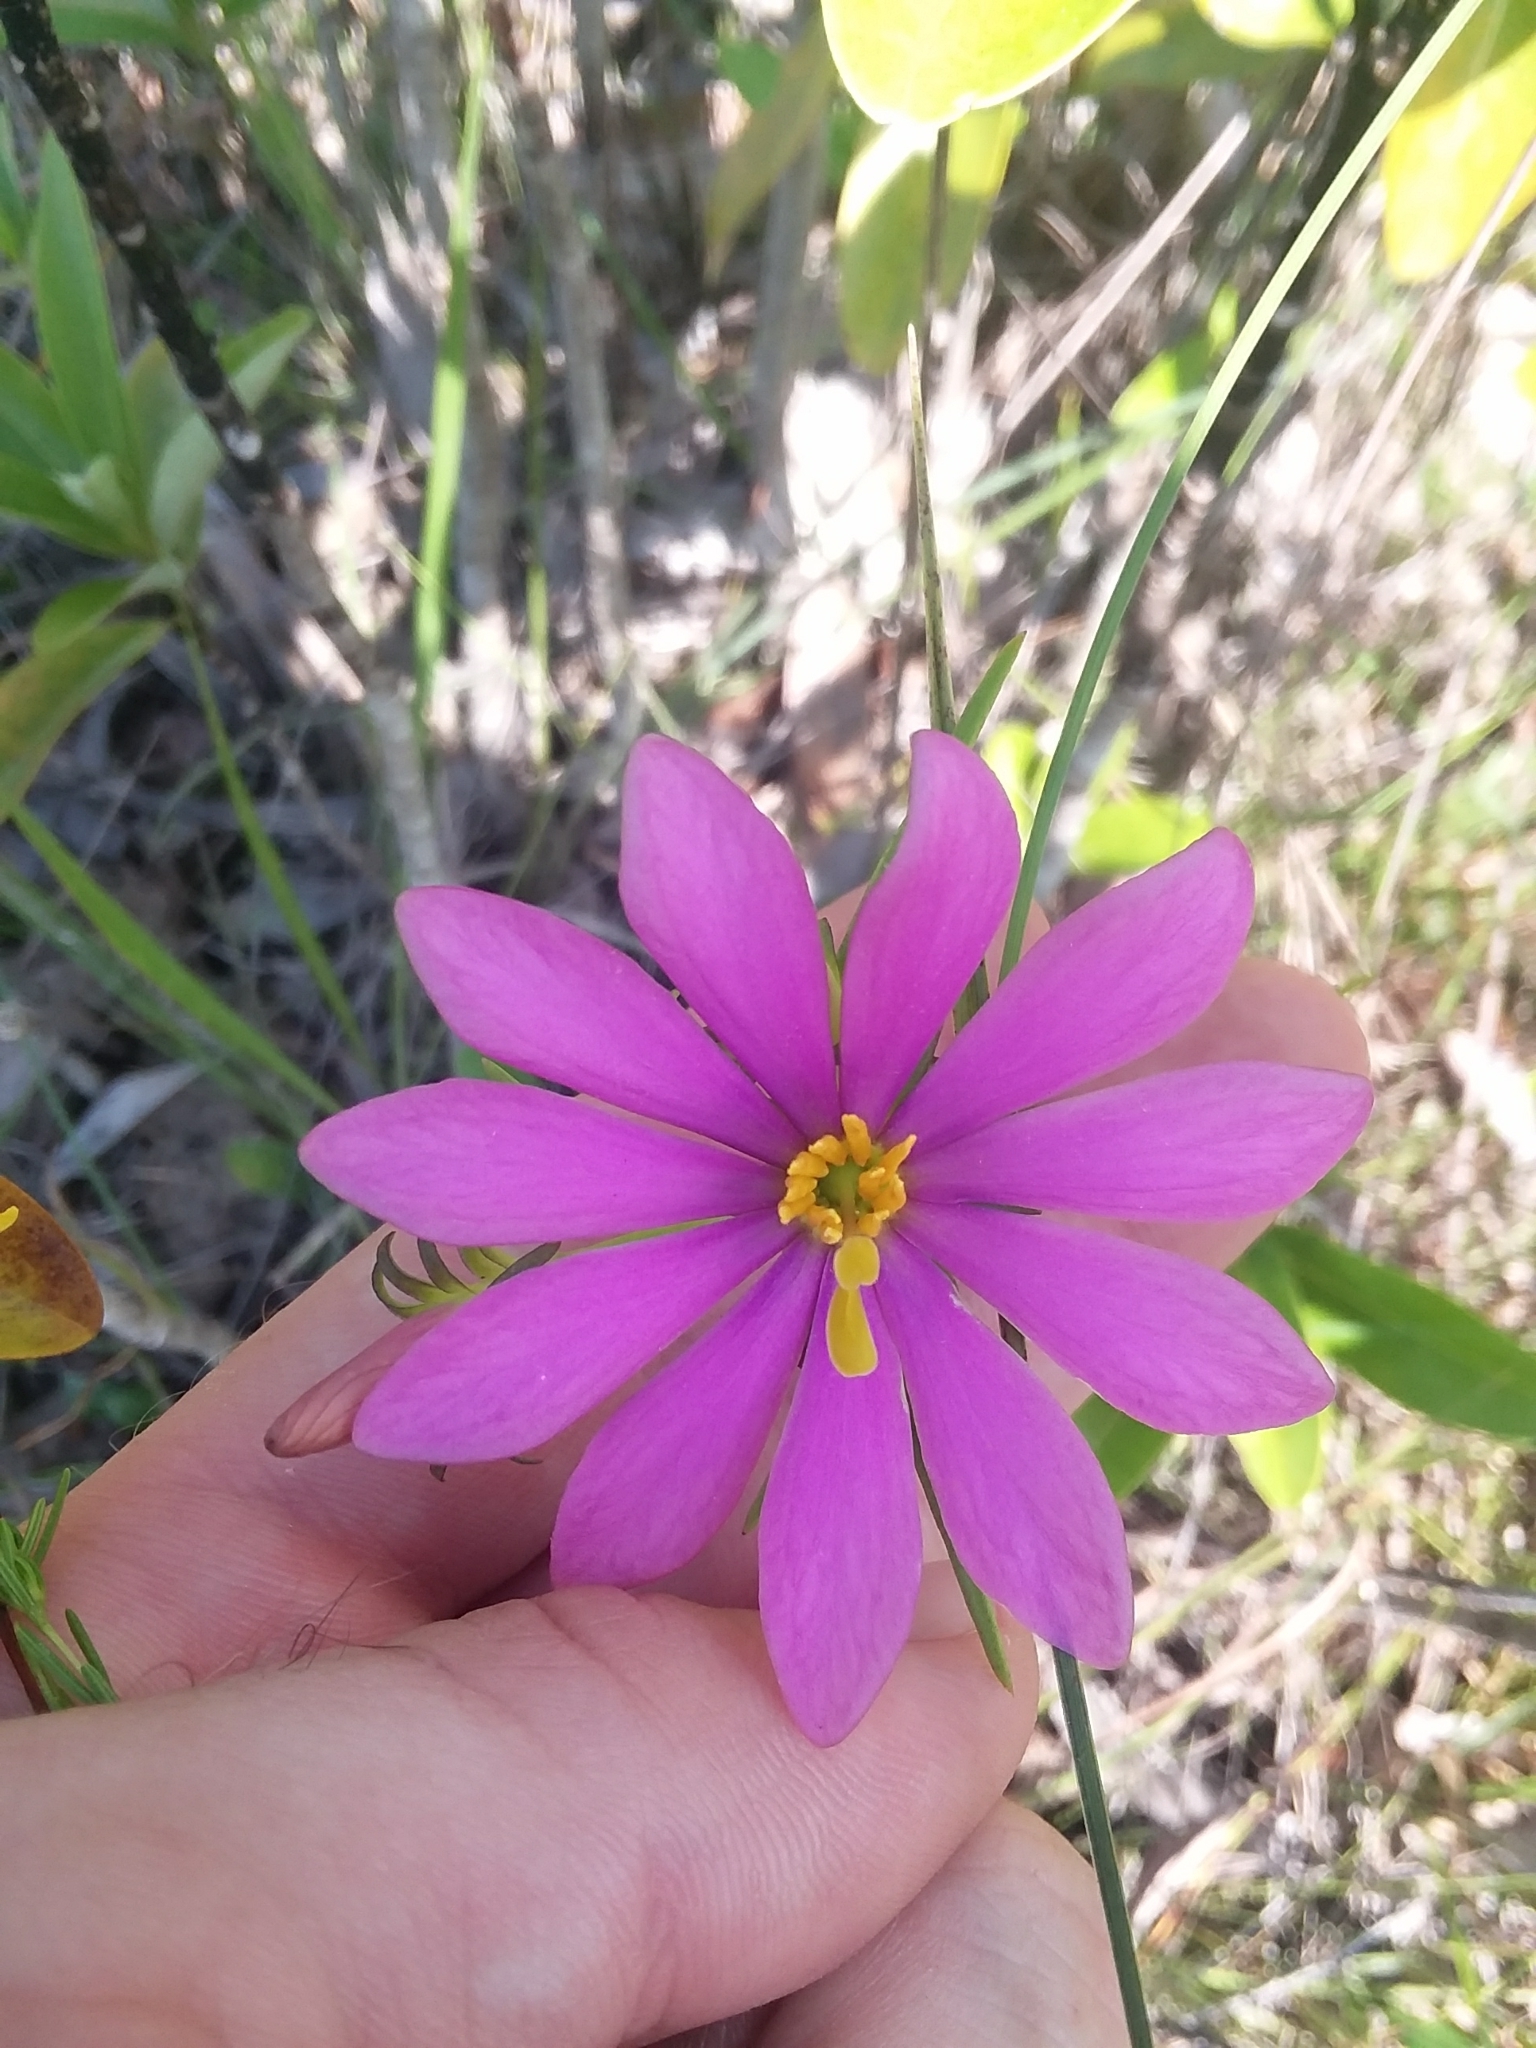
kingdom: Plantae
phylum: Tracheophyta
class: Magnoliopsida
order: Gentianales
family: Gentianaceae
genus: Sabatia
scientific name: Sabatia gentianoides
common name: Pinewoods rose-gentian
